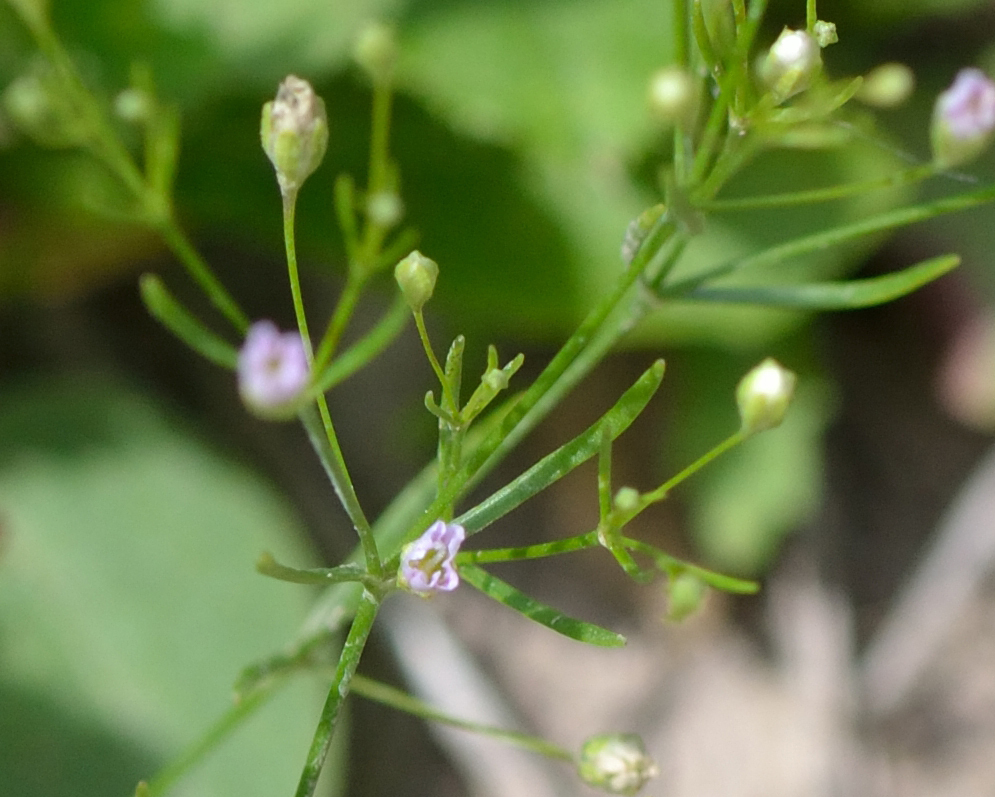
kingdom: Plantae
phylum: Tracheophyta
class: Magnoliopsida
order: Caryophyllales
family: Caryophyllaceae
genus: Psammophiliella
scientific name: Psammophiliella muralis
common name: Cushion baby's-breath
